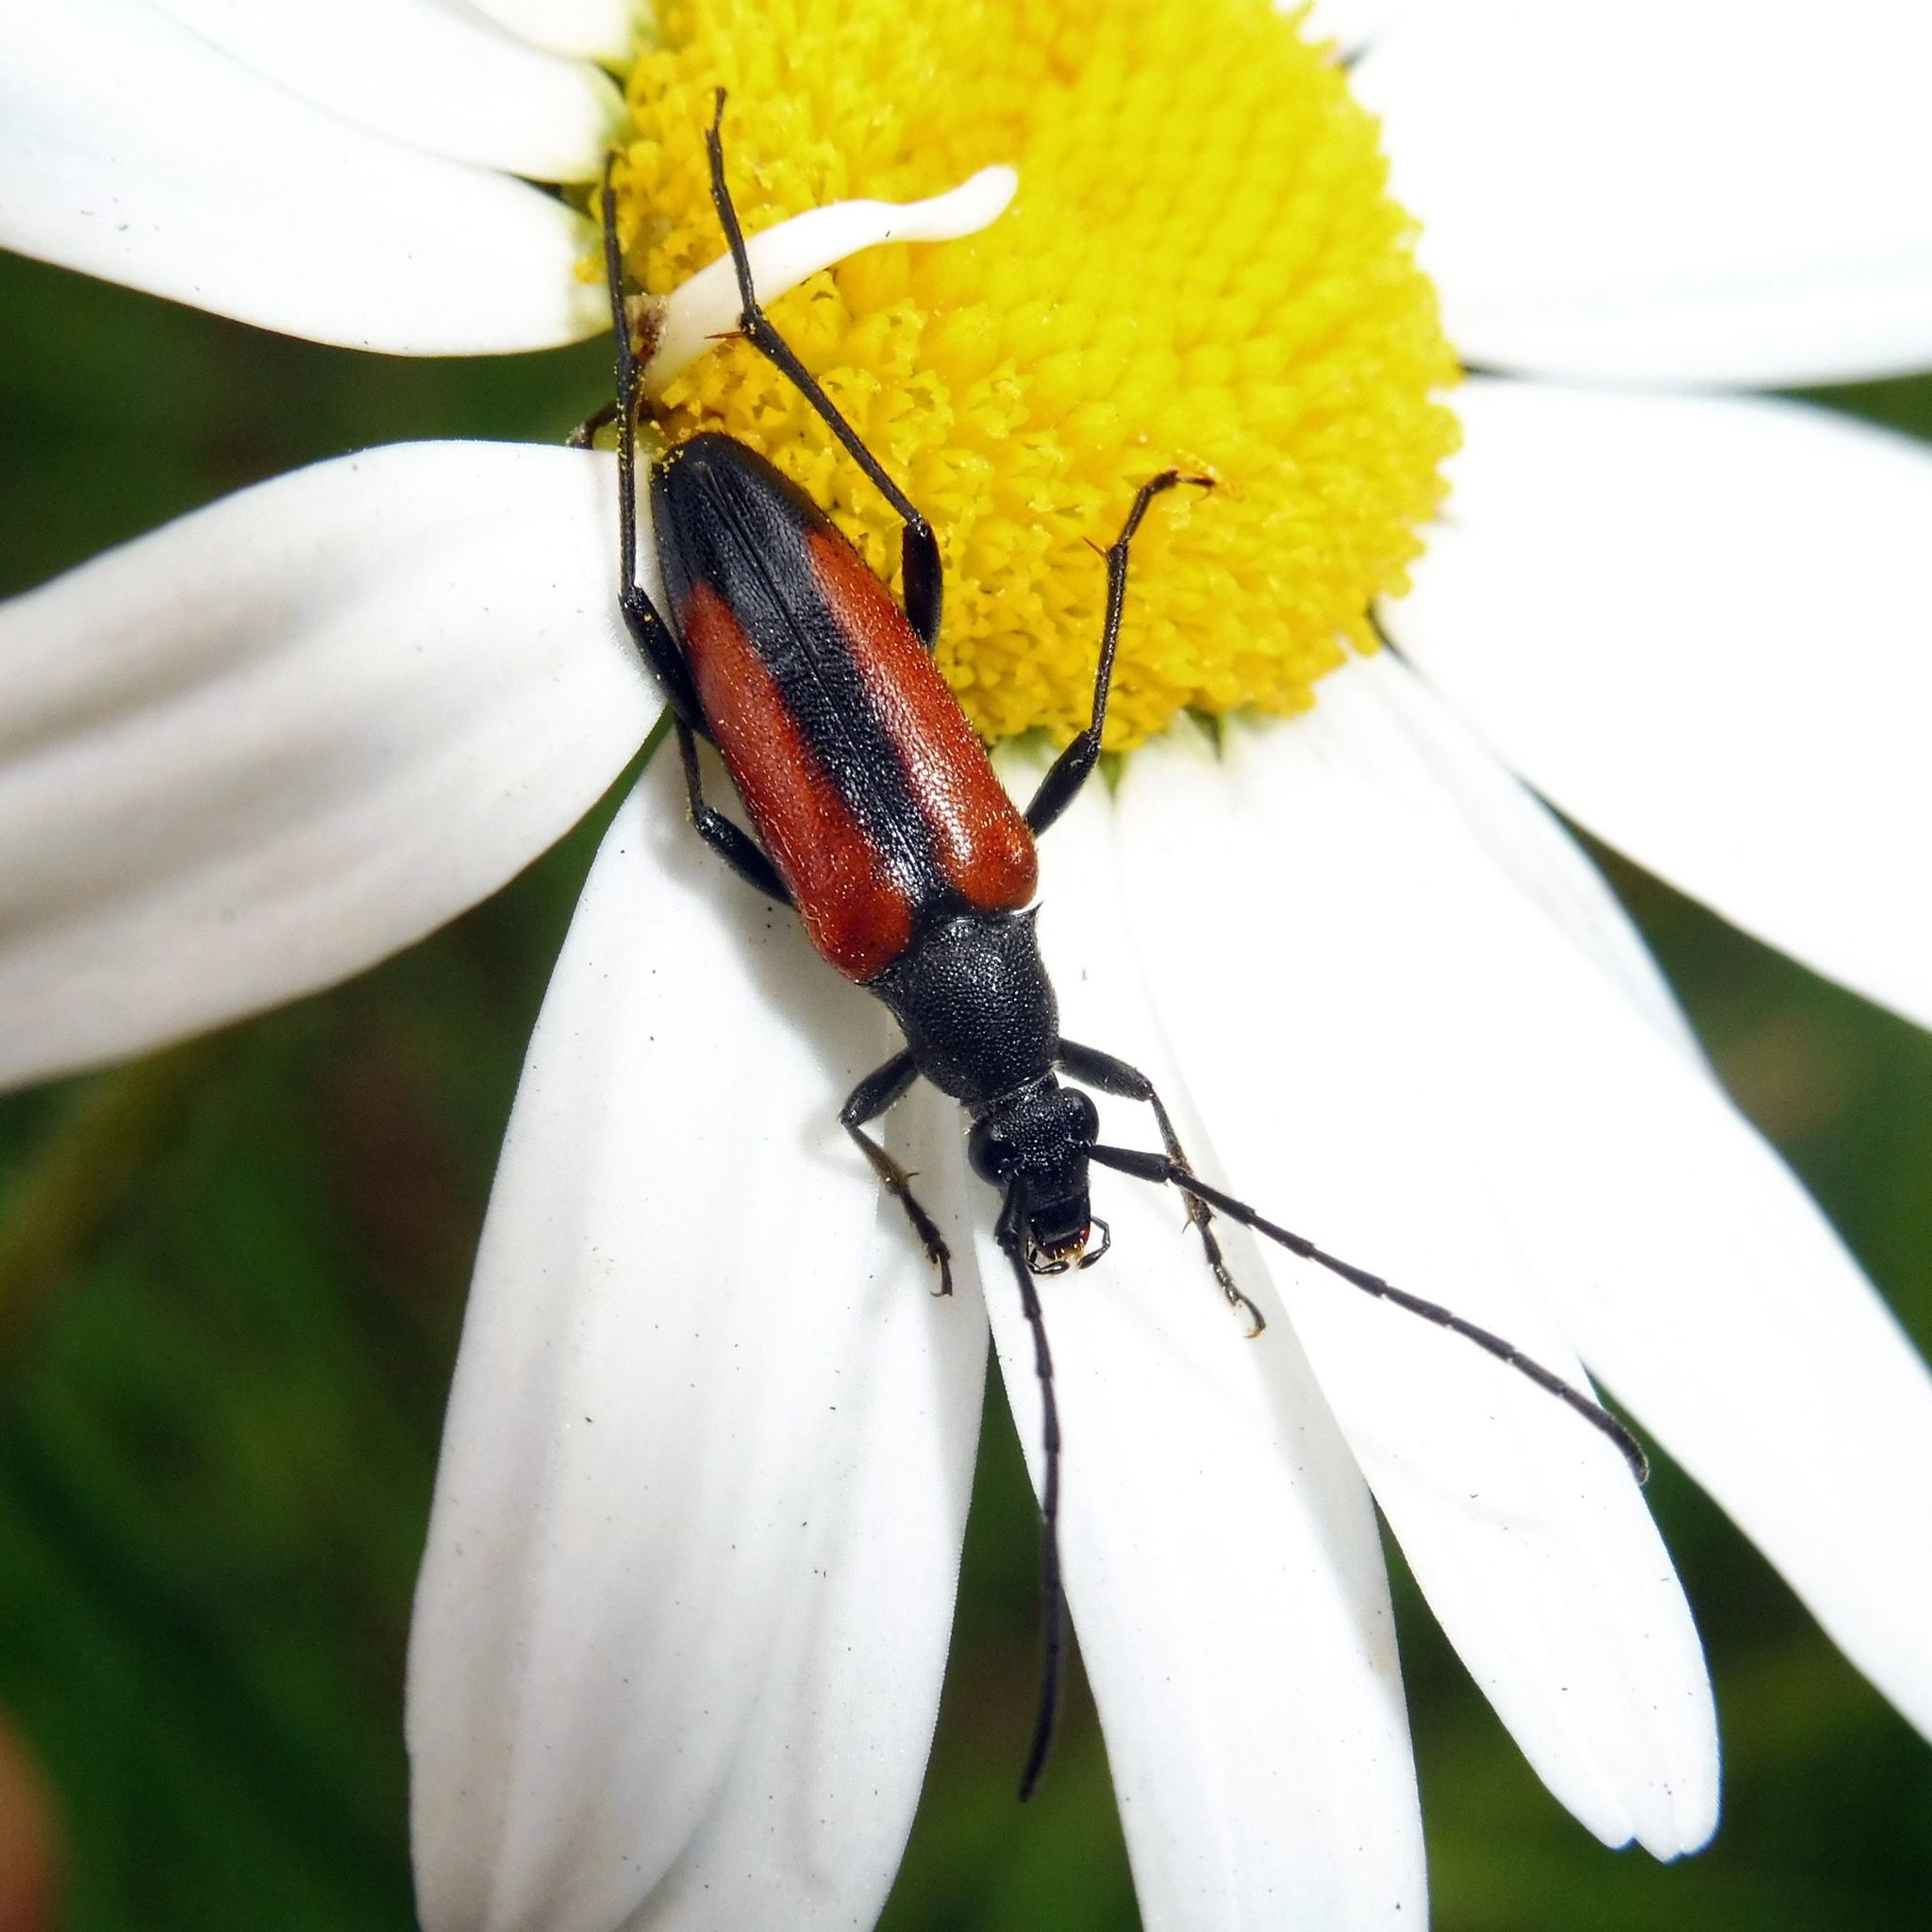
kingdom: Animalia
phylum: Arthropoda
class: Insecta
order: Coleoptera
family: Cerambycidae
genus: Stenurella
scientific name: Stenurella melanura
